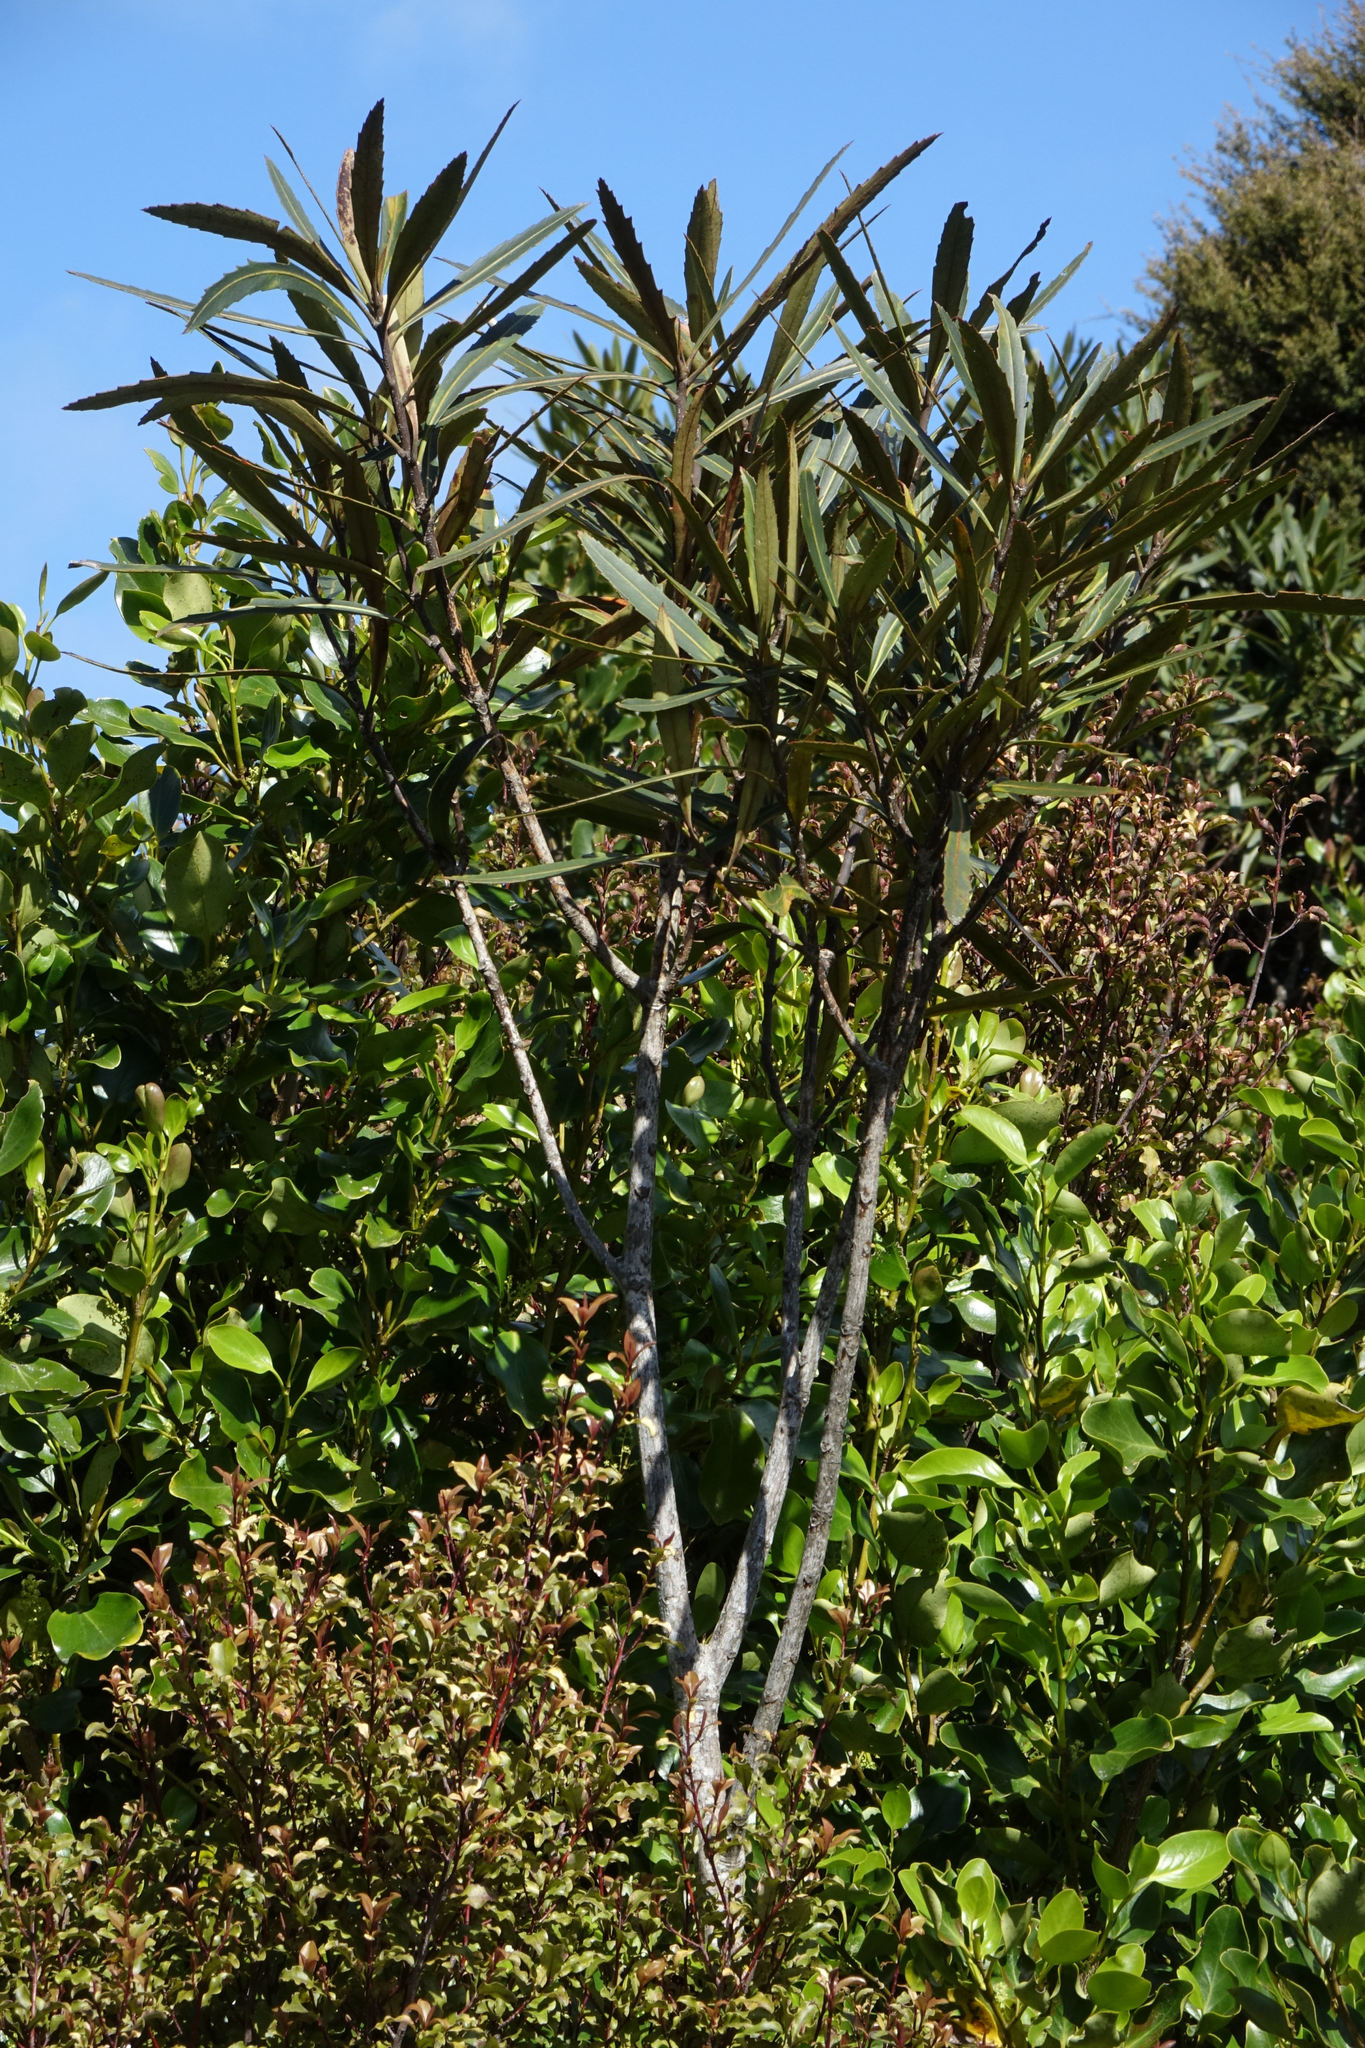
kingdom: Plantae
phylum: Tracheophyta
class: Magnoliopsida
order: Apiales
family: Araliaceae
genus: Pseudopanax
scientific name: Pseudopanax crassifolius
